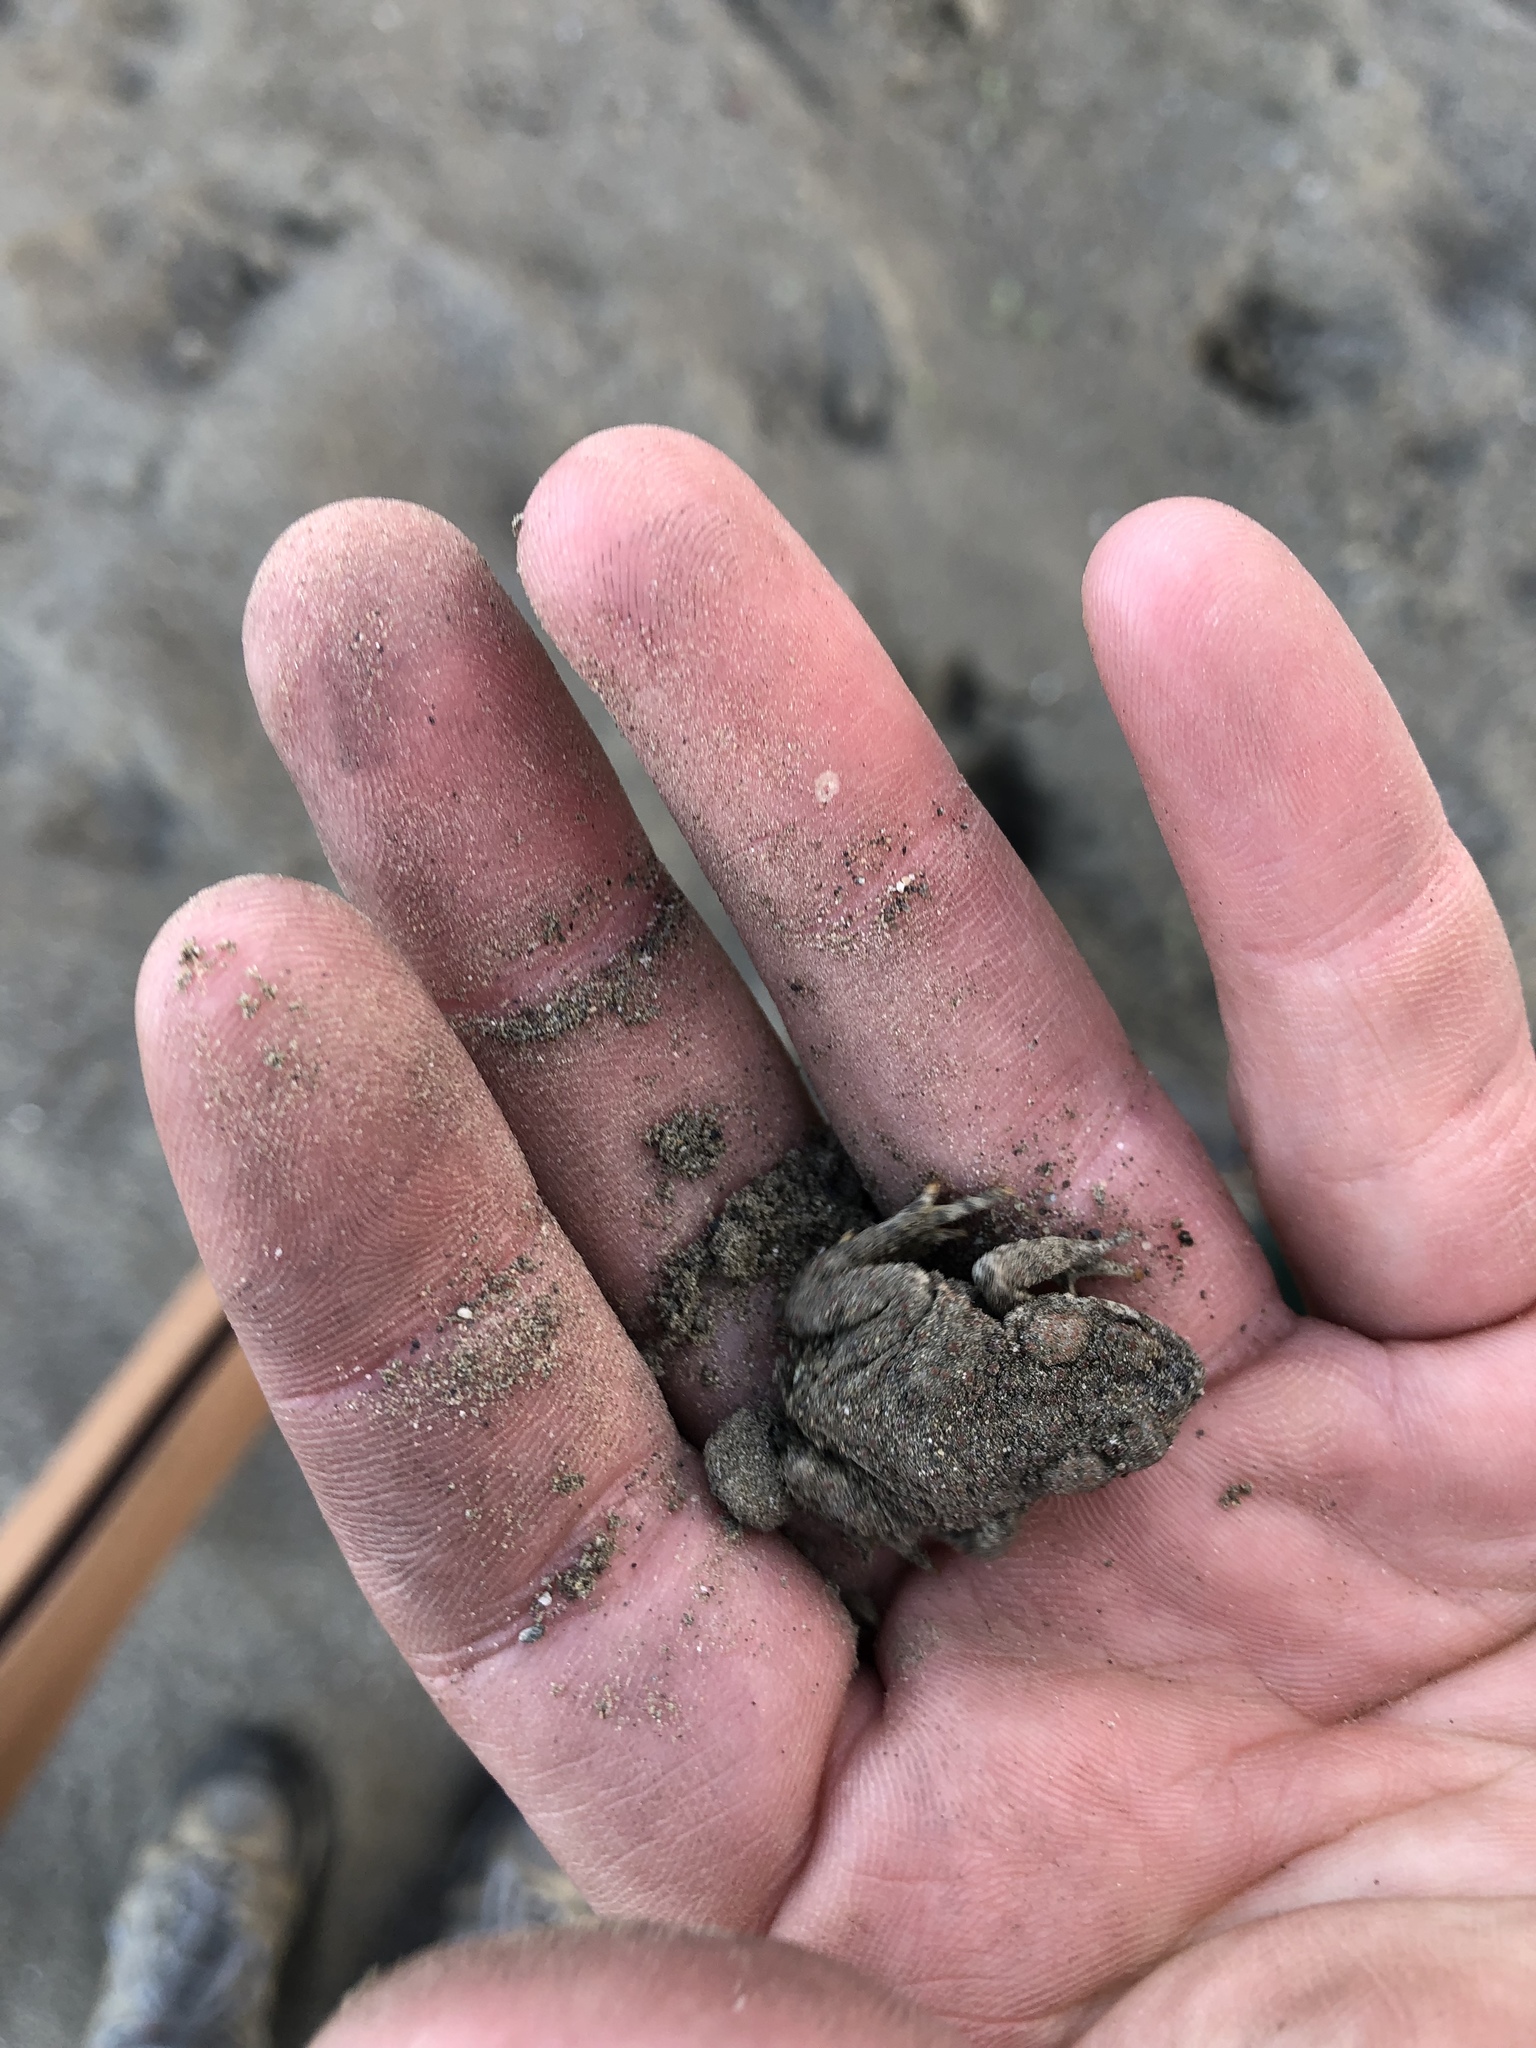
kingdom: Animalia
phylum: Chordata
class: Amphibia
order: Anura
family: Bufonidae
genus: Anaxyrus
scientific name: Anaxyrus boreas
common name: Western toad
